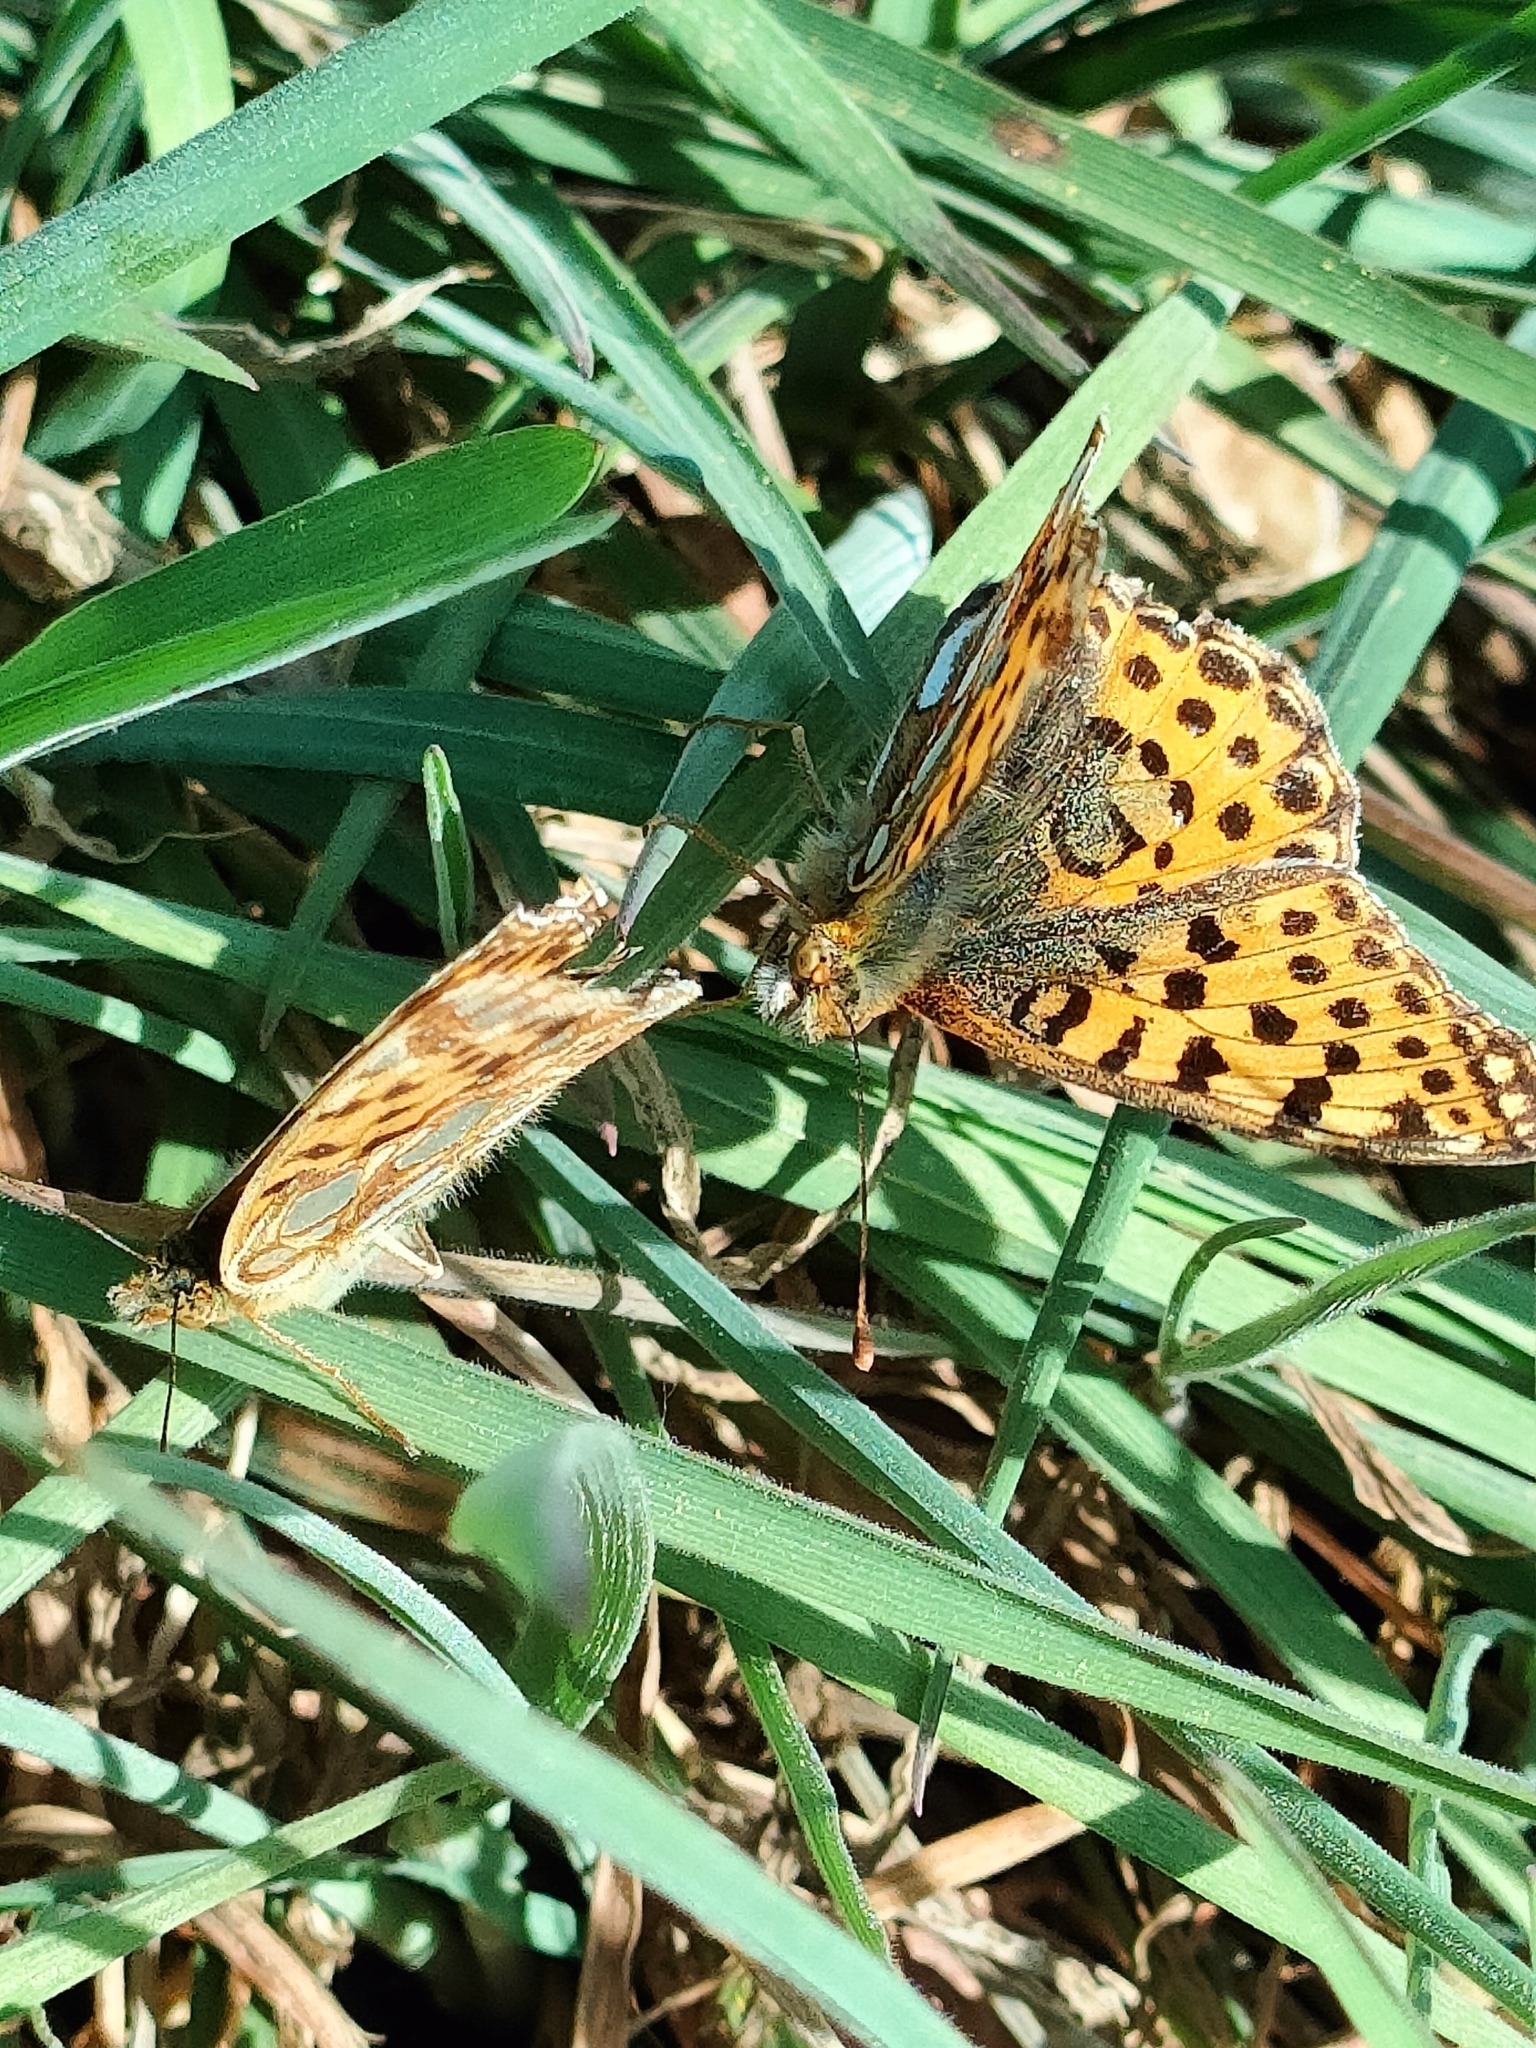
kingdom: Animalia
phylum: Arthropoda
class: Insecta
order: Lepidoptera
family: Nymphalidae
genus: Issoria
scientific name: Issoria lathonia
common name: Queen of spain fritillary
